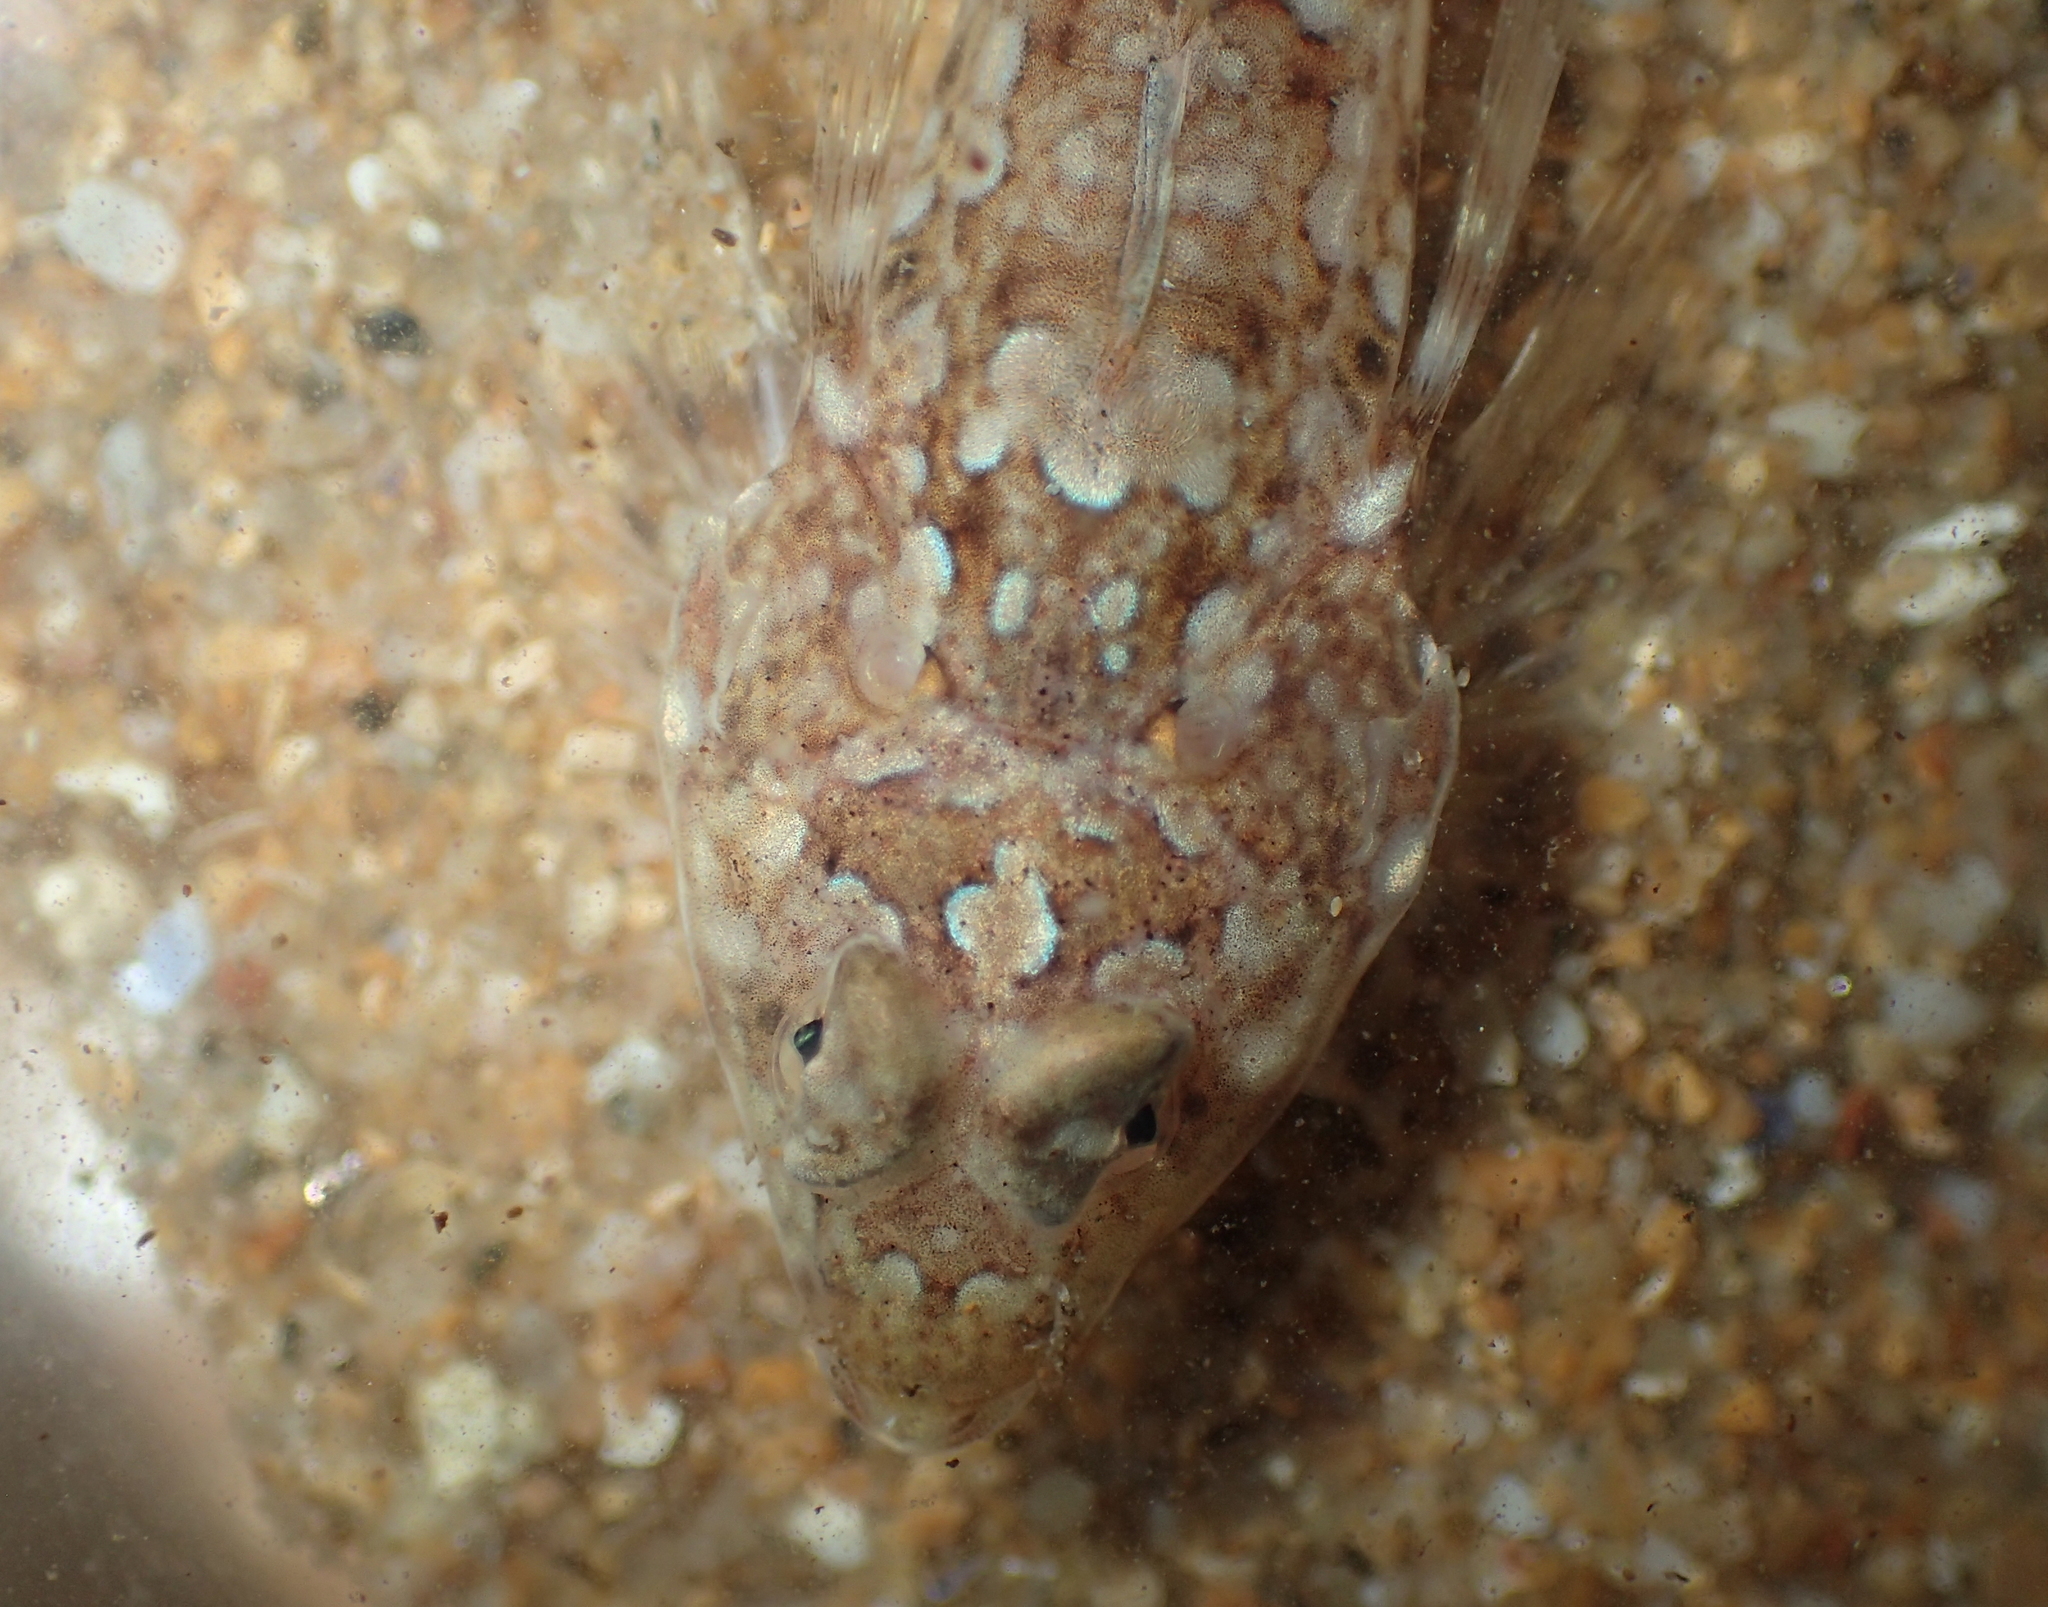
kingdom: Animalia
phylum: Chordata
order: Perciformes
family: Callionymidae
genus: Callionymus
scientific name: Callionymus lyra
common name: Dragonet
